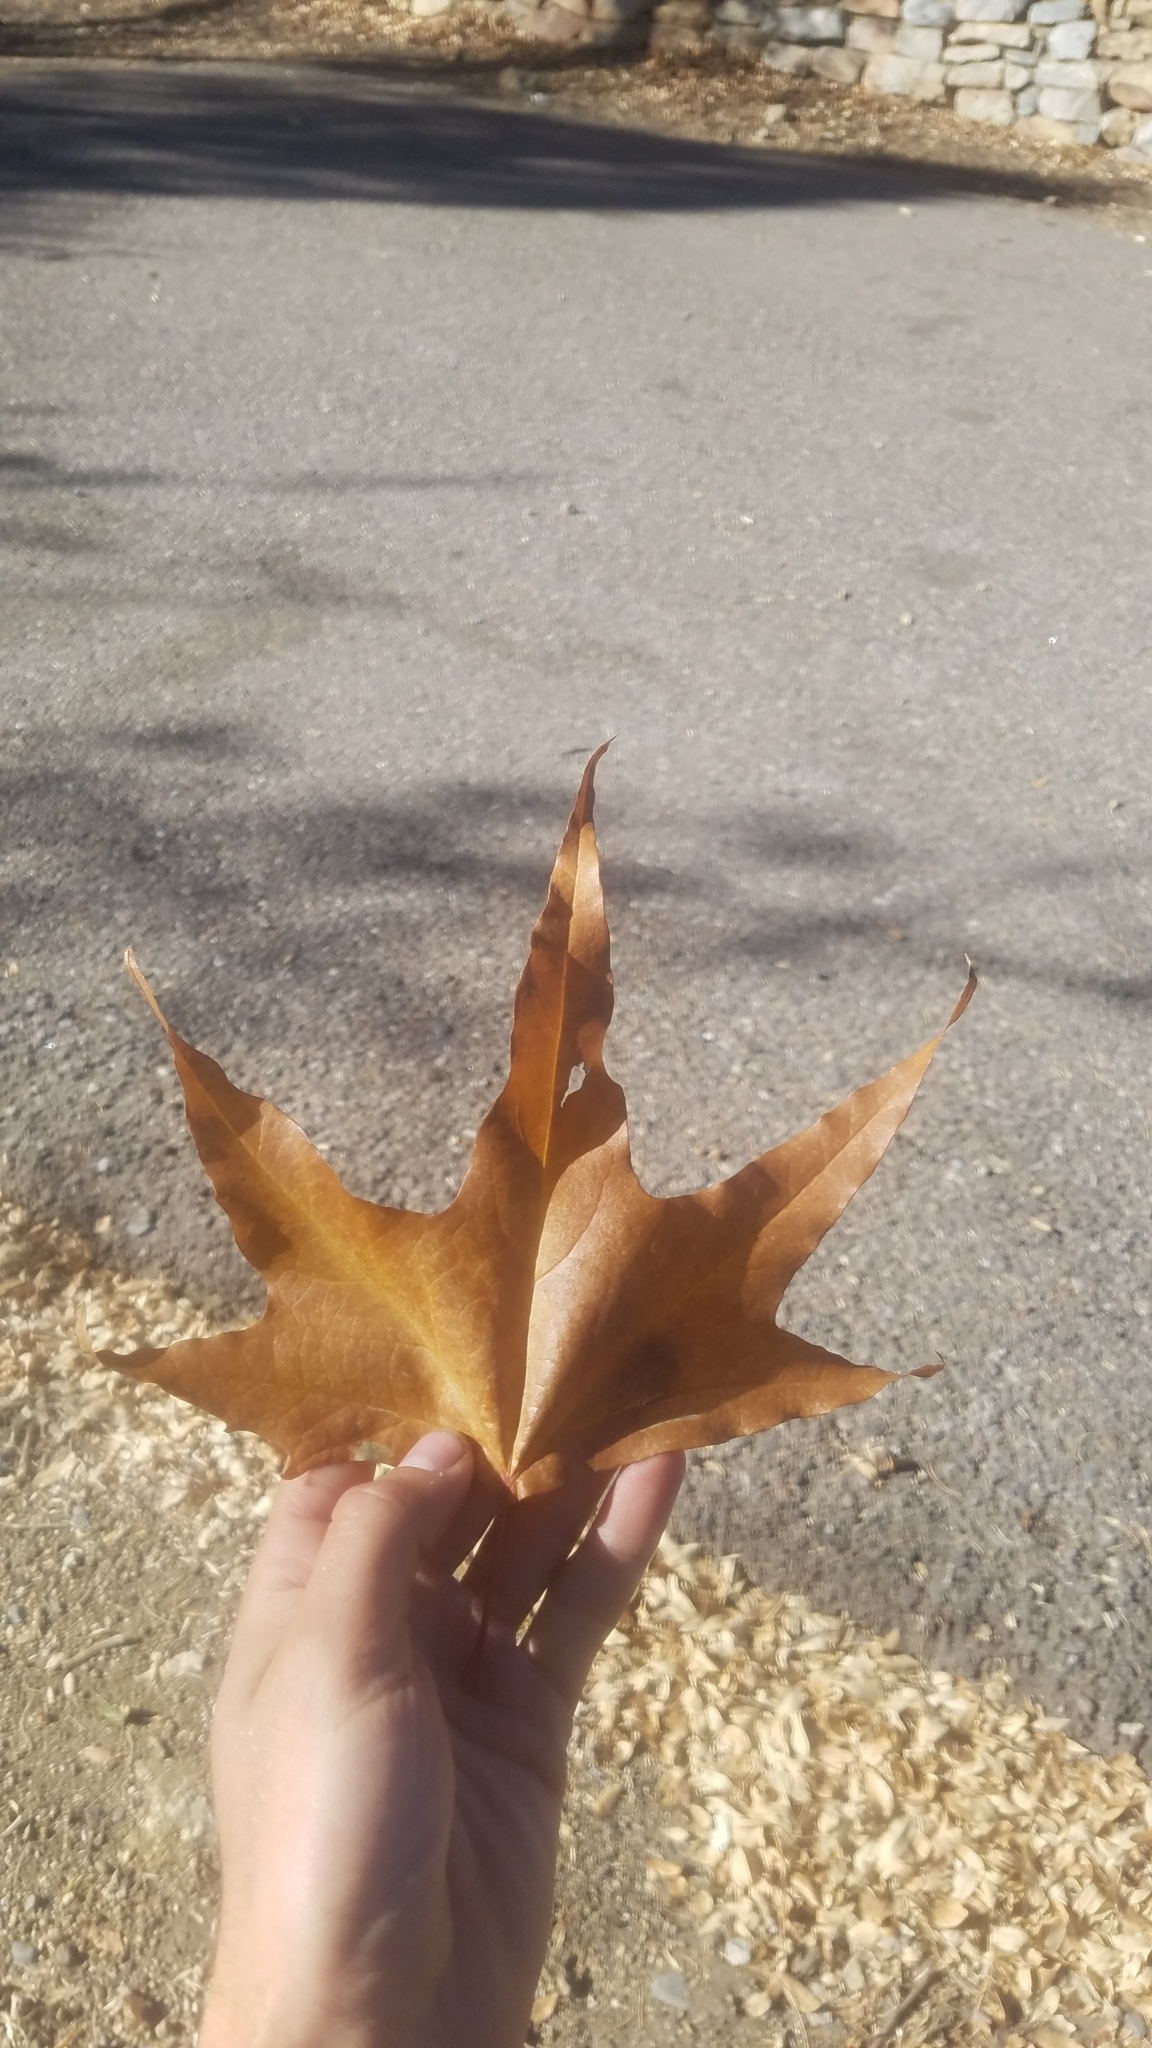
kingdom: Plantae
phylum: Tracheophyta
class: Magnoliopsida
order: Proteales
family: Platanaceae
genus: Platanus
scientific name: Platanus wrightii
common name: Arizona sycamore
